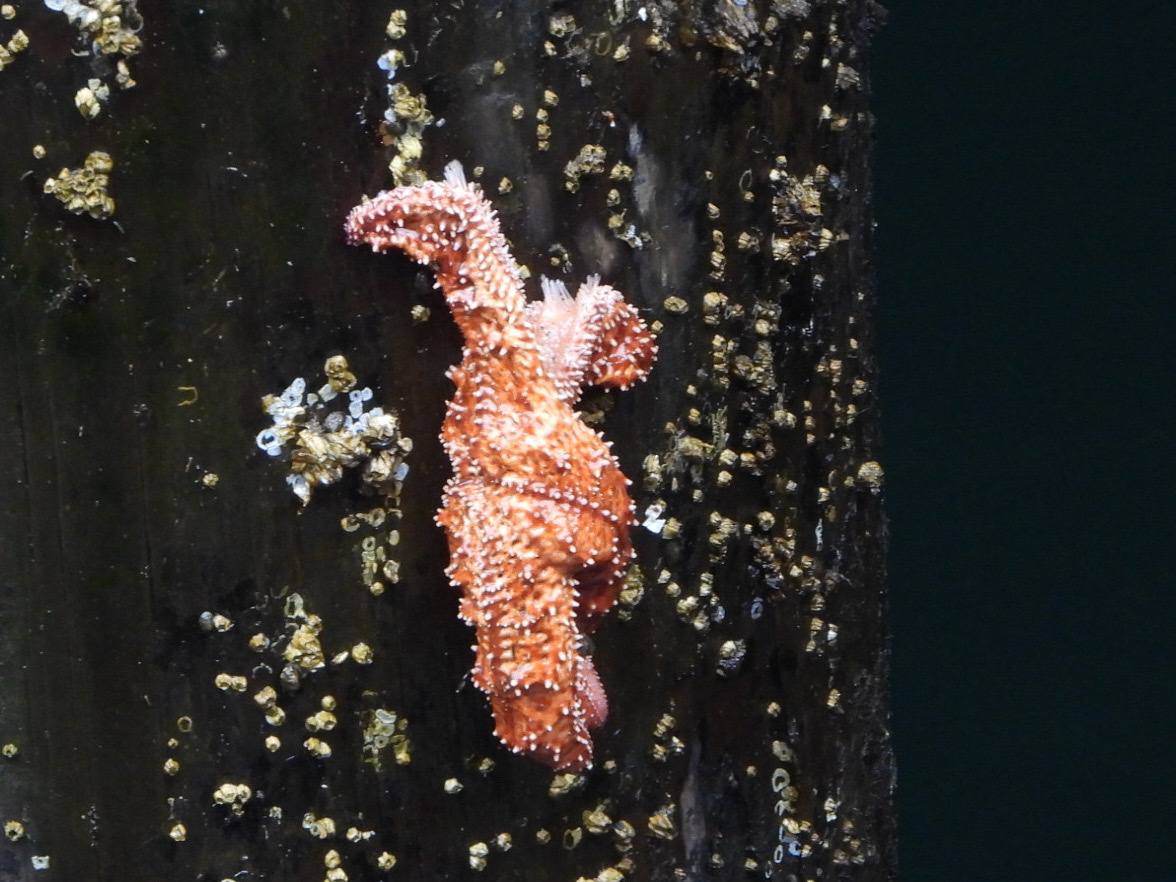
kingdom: Animalia
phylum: Echinodermata
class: Asteroidea
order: Forcipulatida
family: Asteriidae
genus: Pisaster
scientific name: Pisaster ochraceus
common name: Ochre stars
